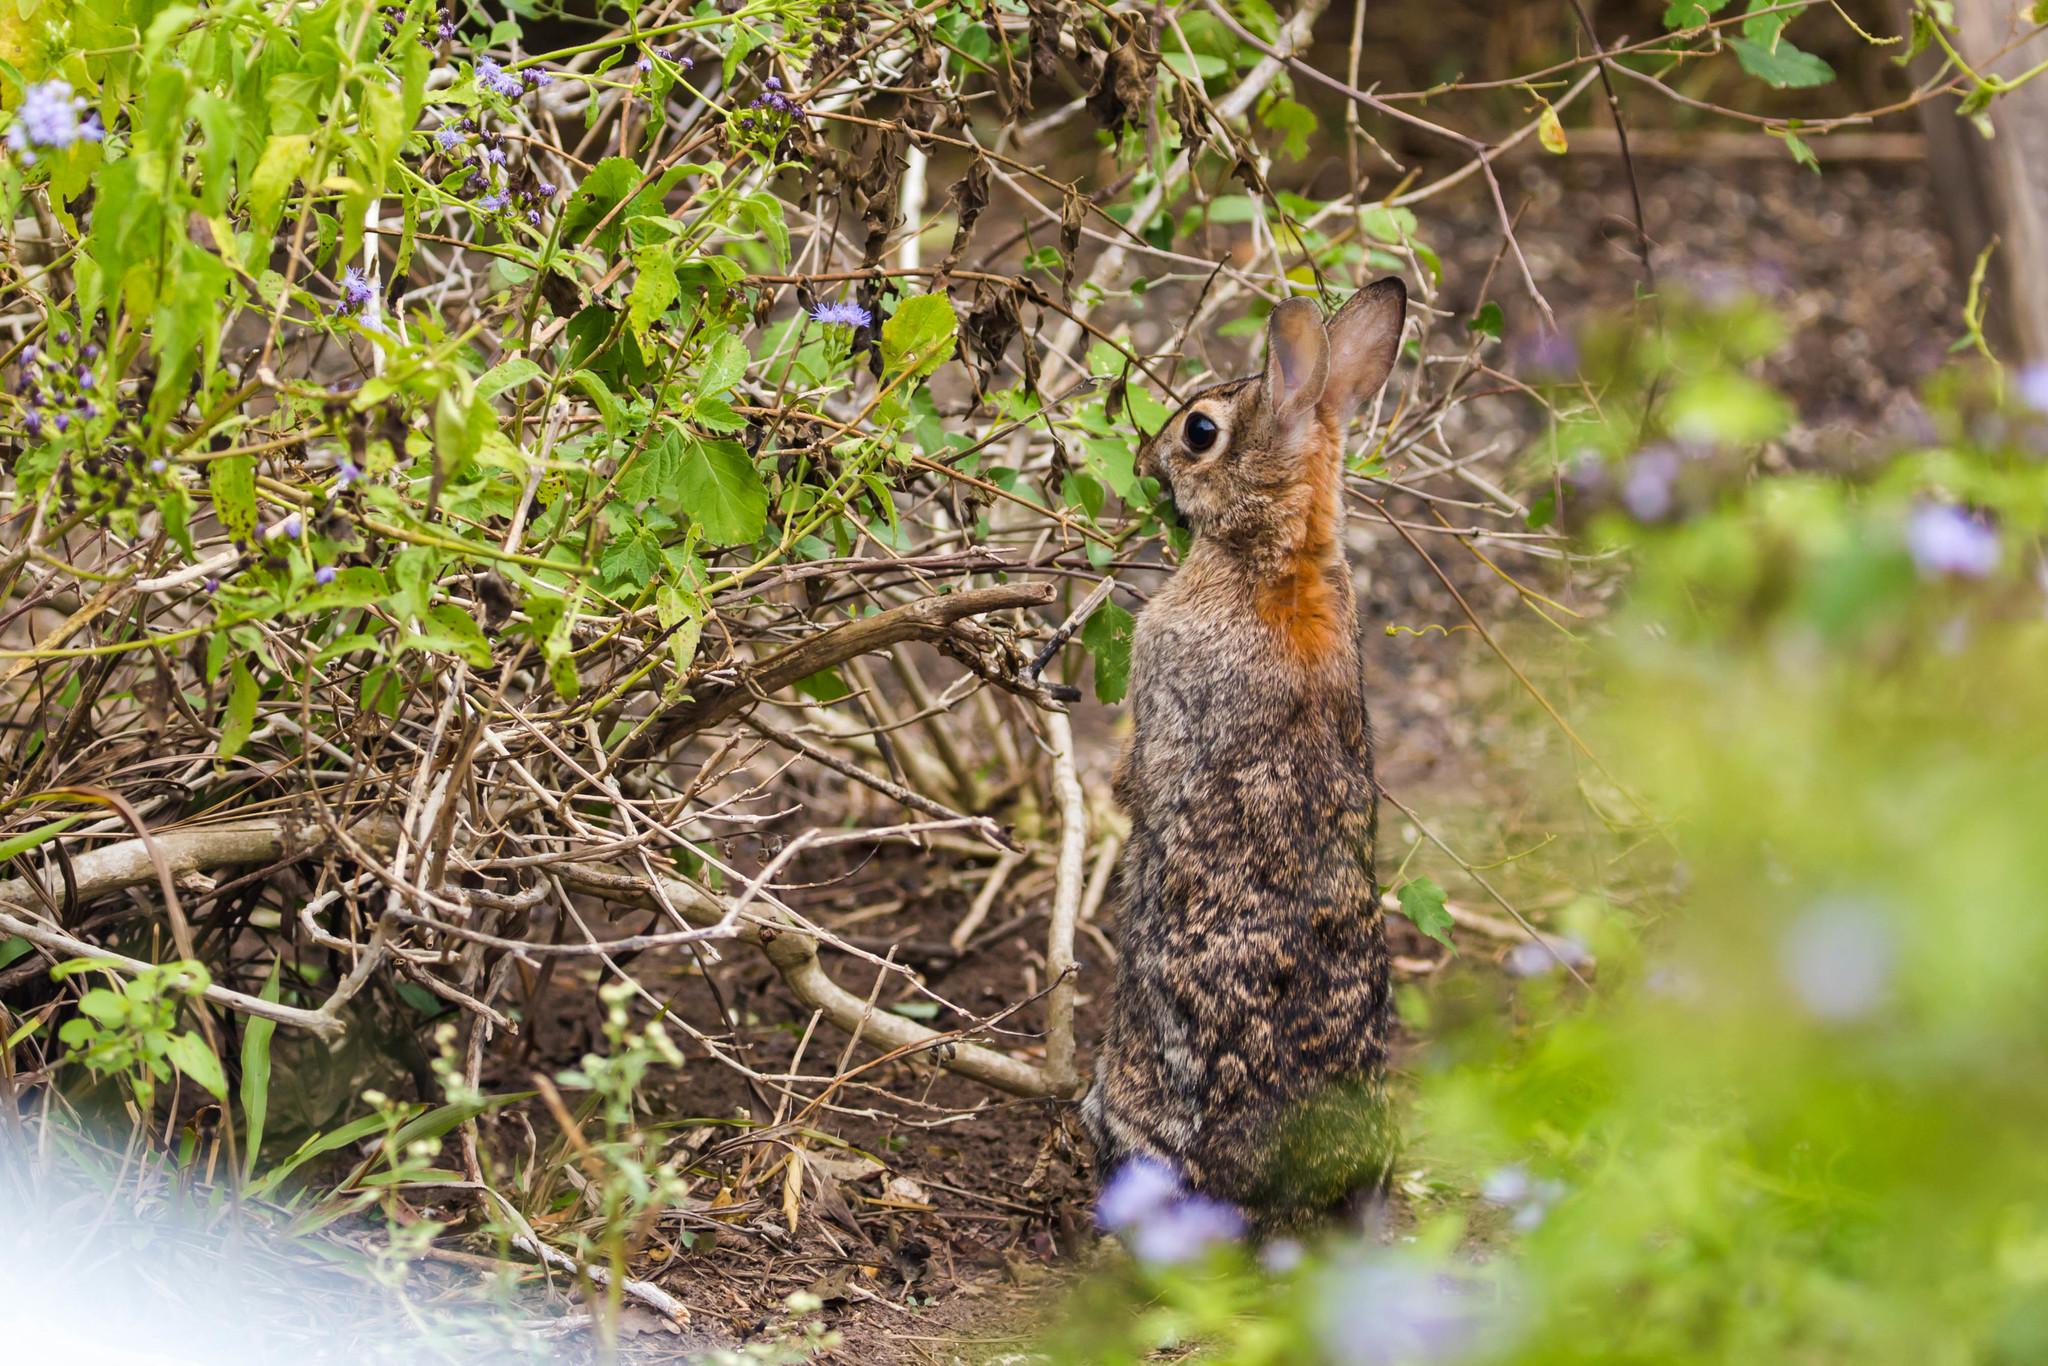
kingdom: Animalia
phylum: Chordata
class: Mammalia
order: Lagomorpha
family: Leporidae
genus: Sylvilagus
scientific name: Sylvilagus floridanus
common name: Eastern cottontail
